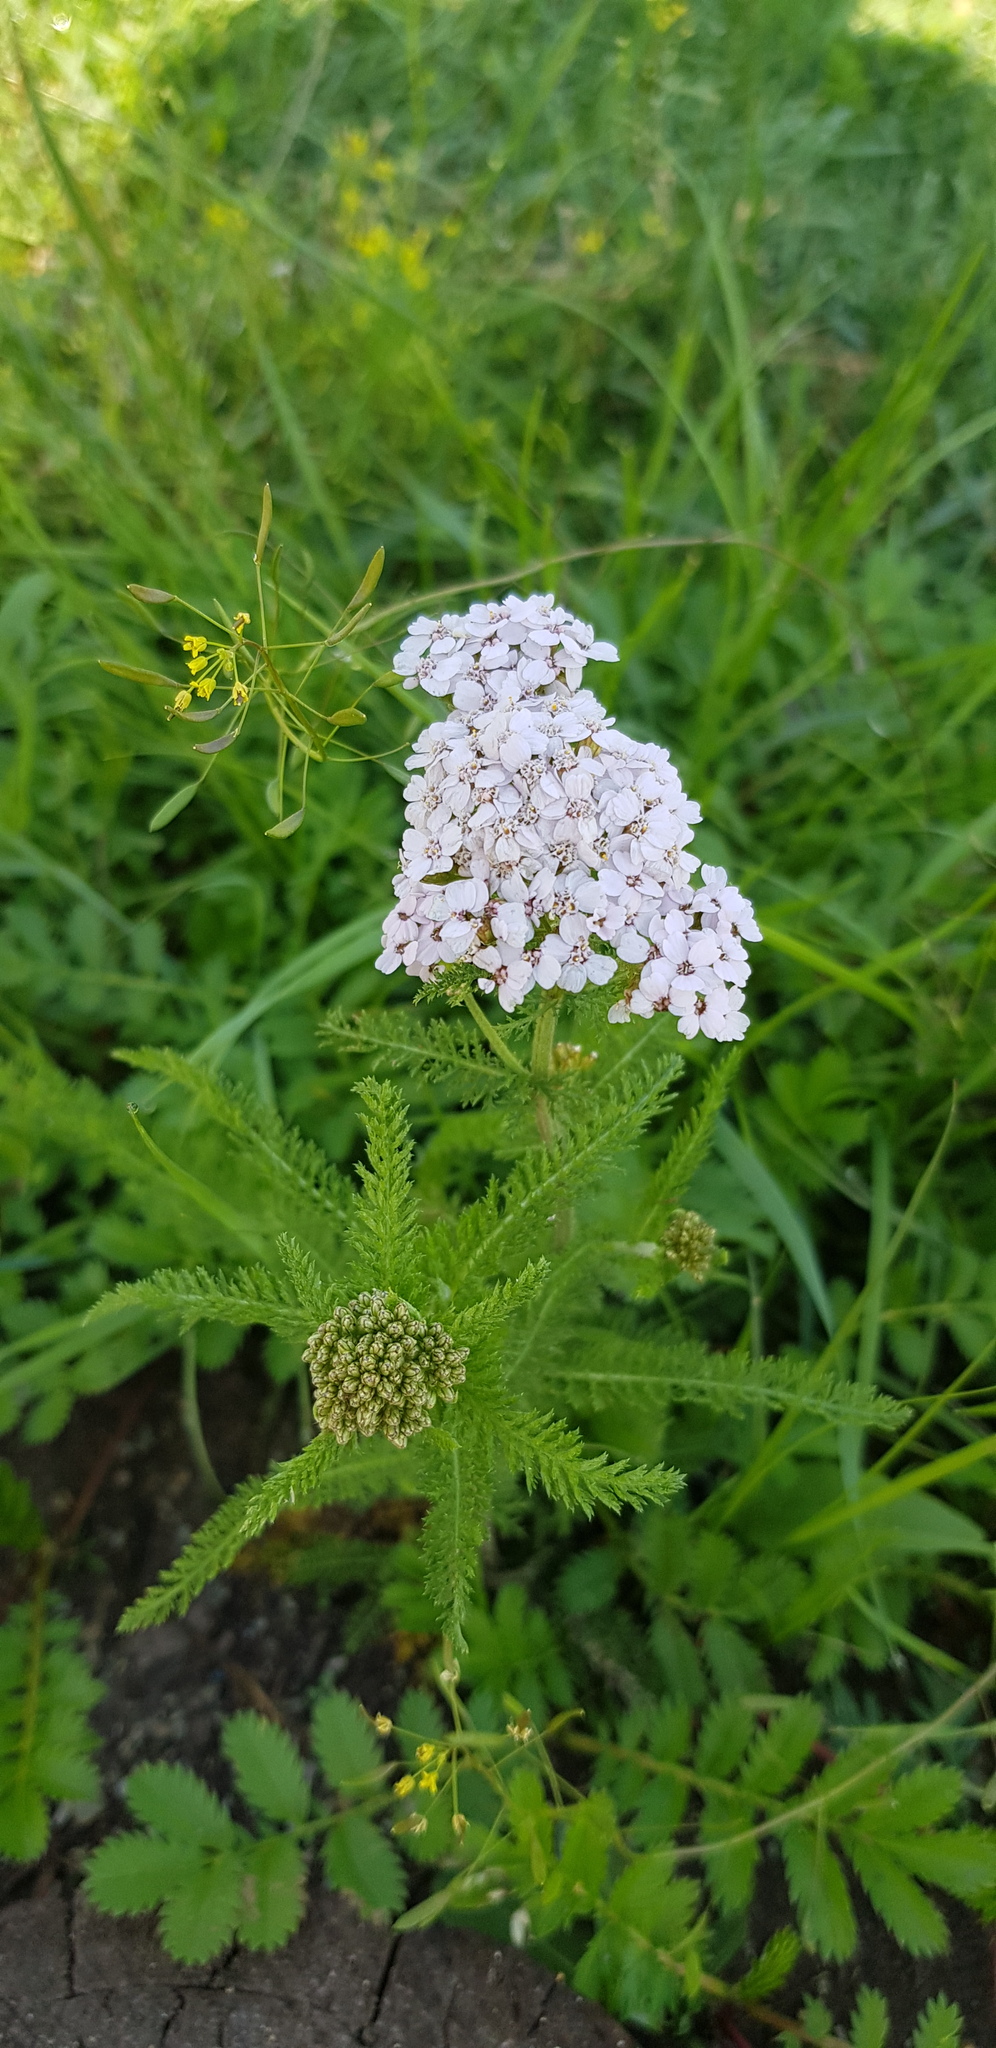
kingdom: Plantae
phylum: Tracheophyta
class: Magnoliopsida
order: Asterales
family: Asteraceae
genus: Achillea
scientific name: Achillea asiatica
